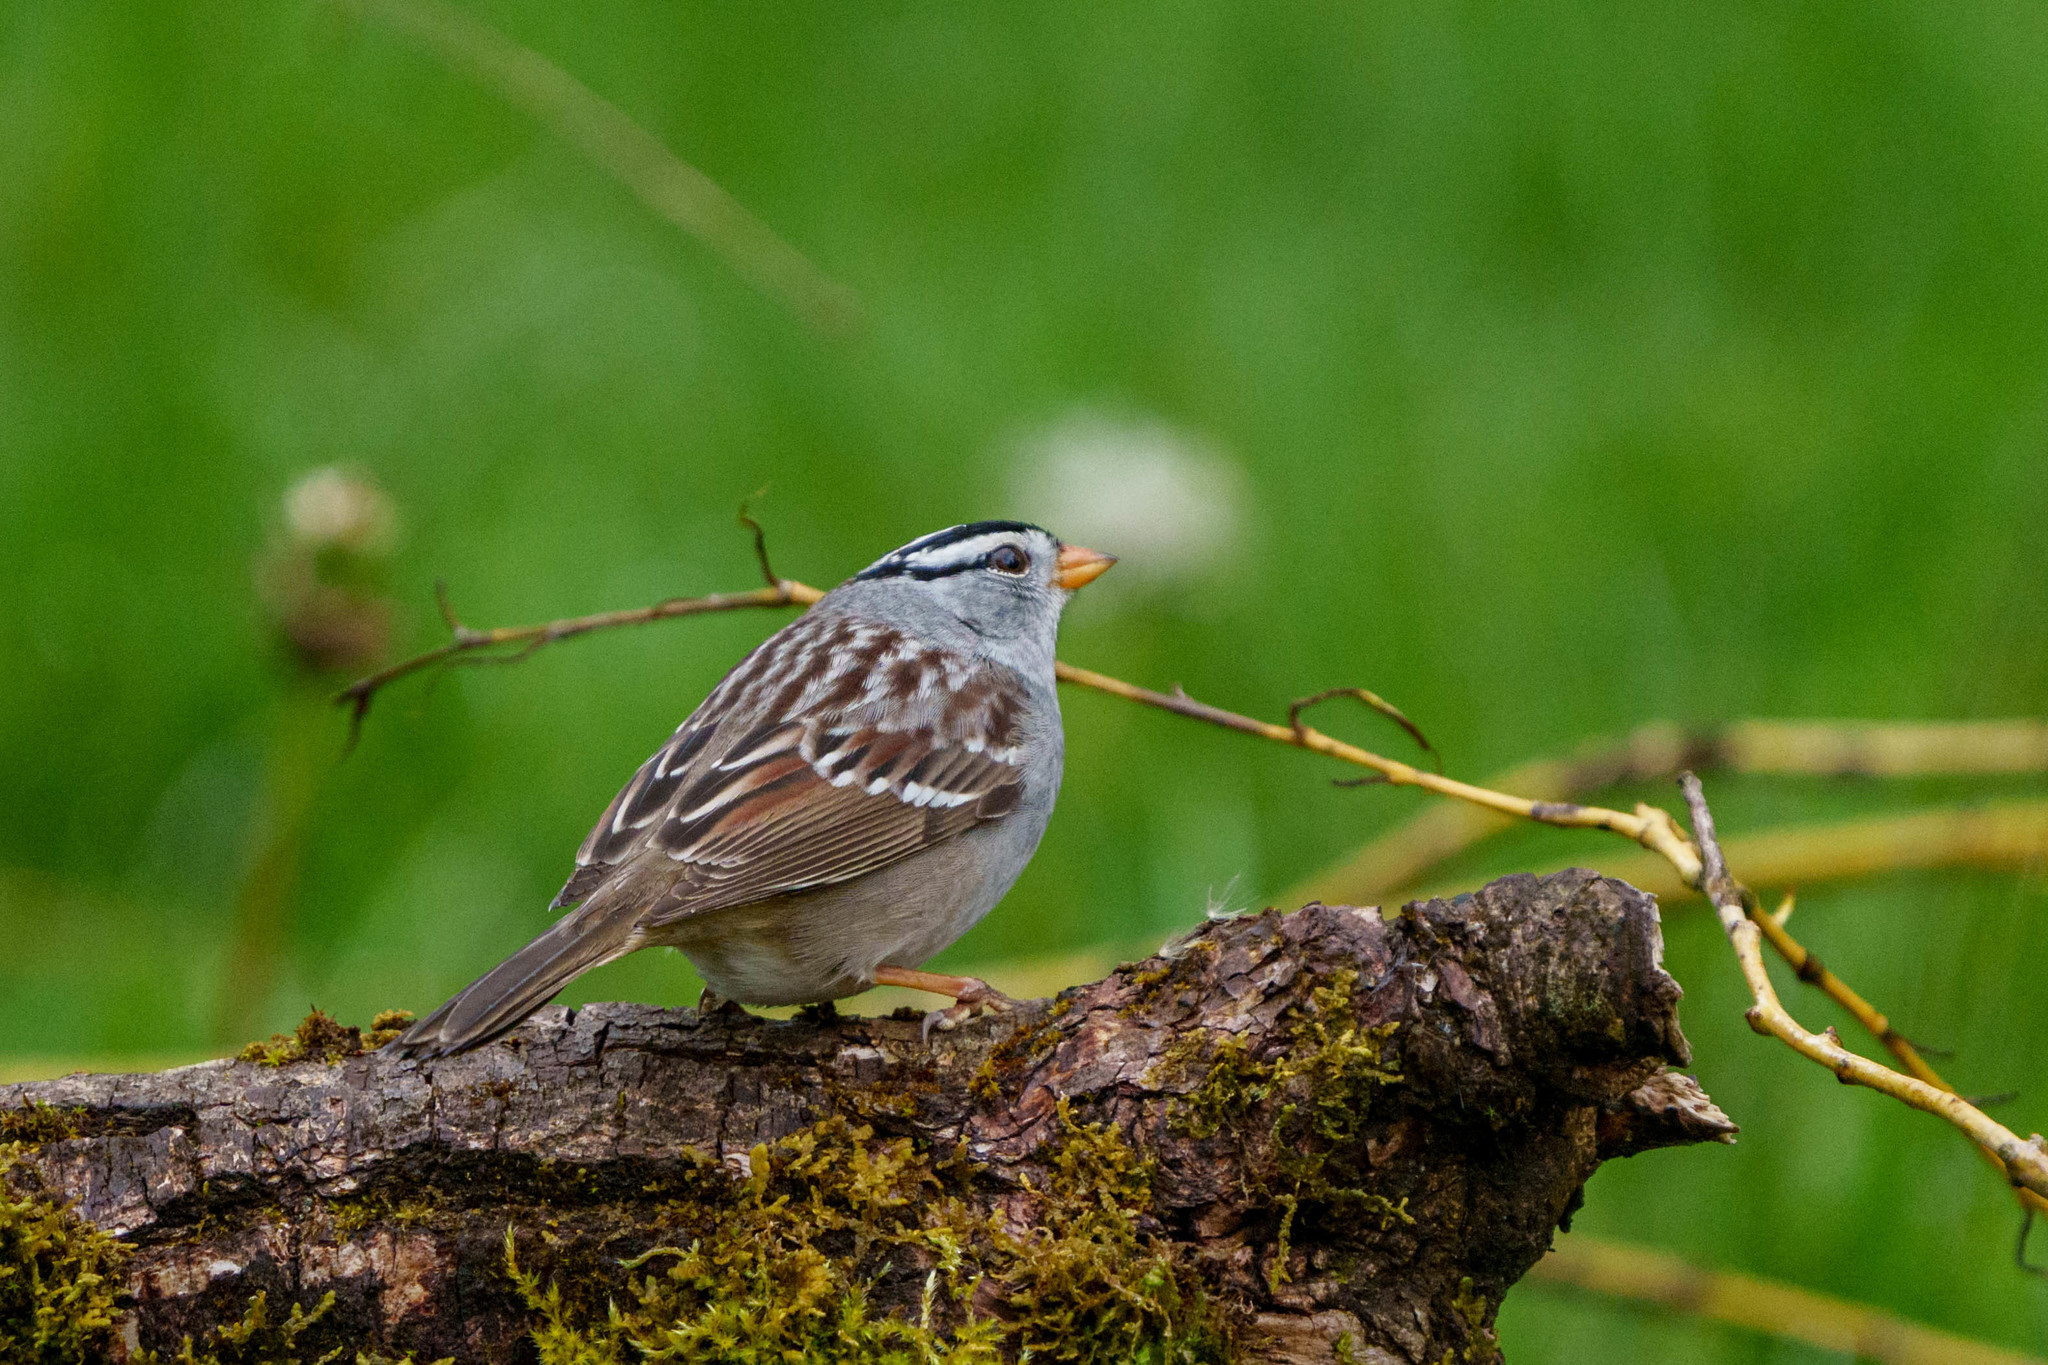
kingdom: Animalia
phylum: Chordata
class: Aves
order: Passeriformes
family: Passerellidae
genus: Zonotrichia
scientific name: Zonotrichia leucophrys
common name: White-crowned sparrow
